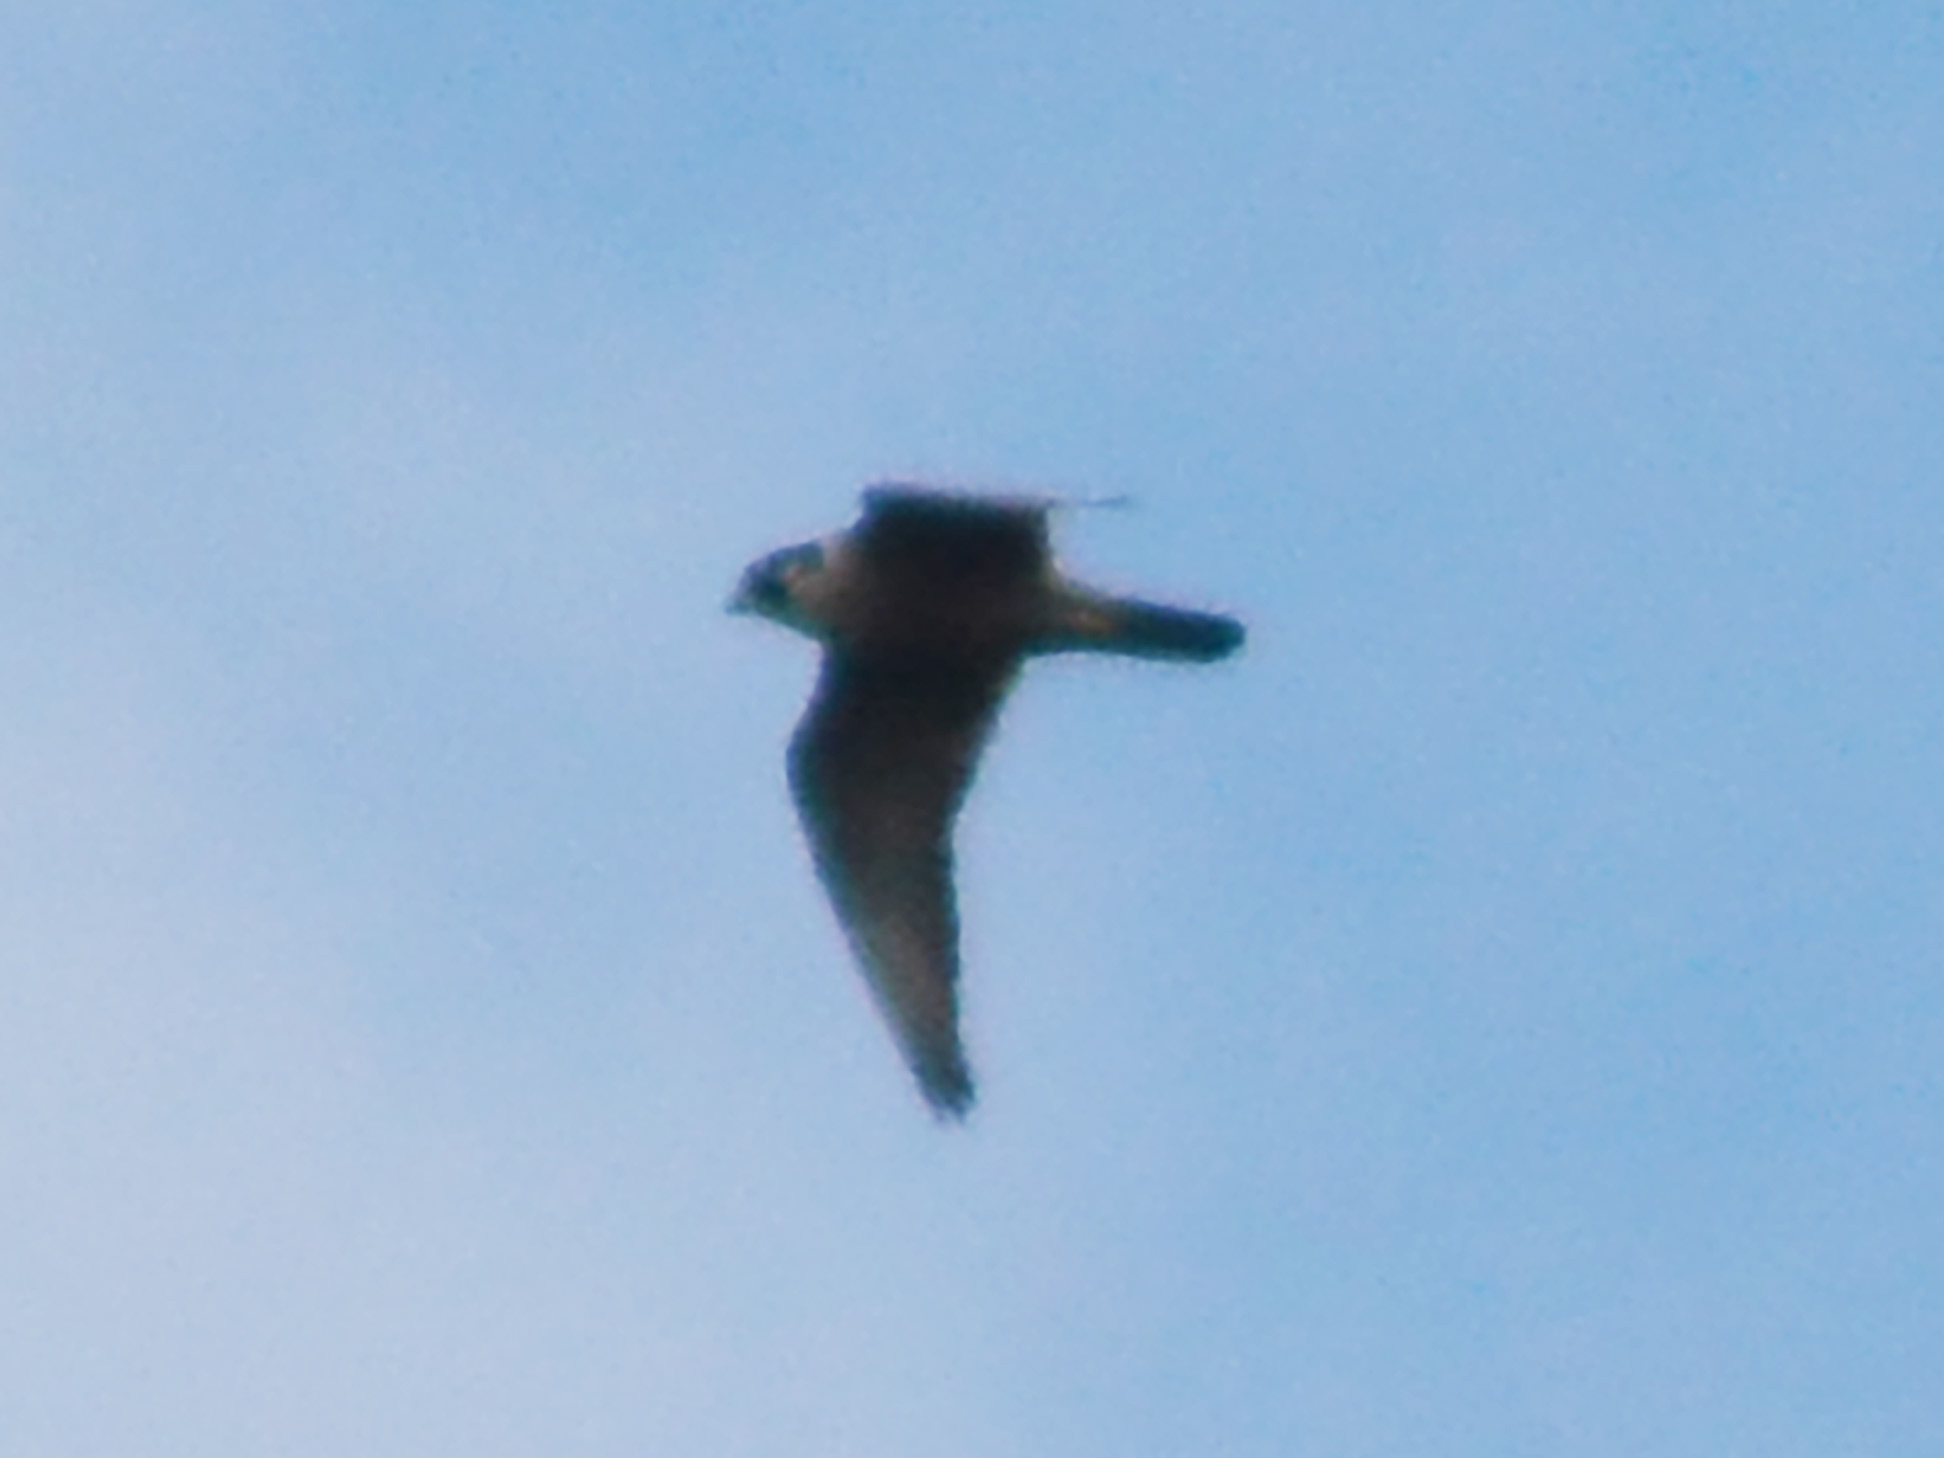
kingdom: Animalia
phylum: Chordata
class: Aves
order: Falconiformes
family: Falconidae
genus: Falco
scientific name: Falco peregrinus
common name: Peregrine falcon
